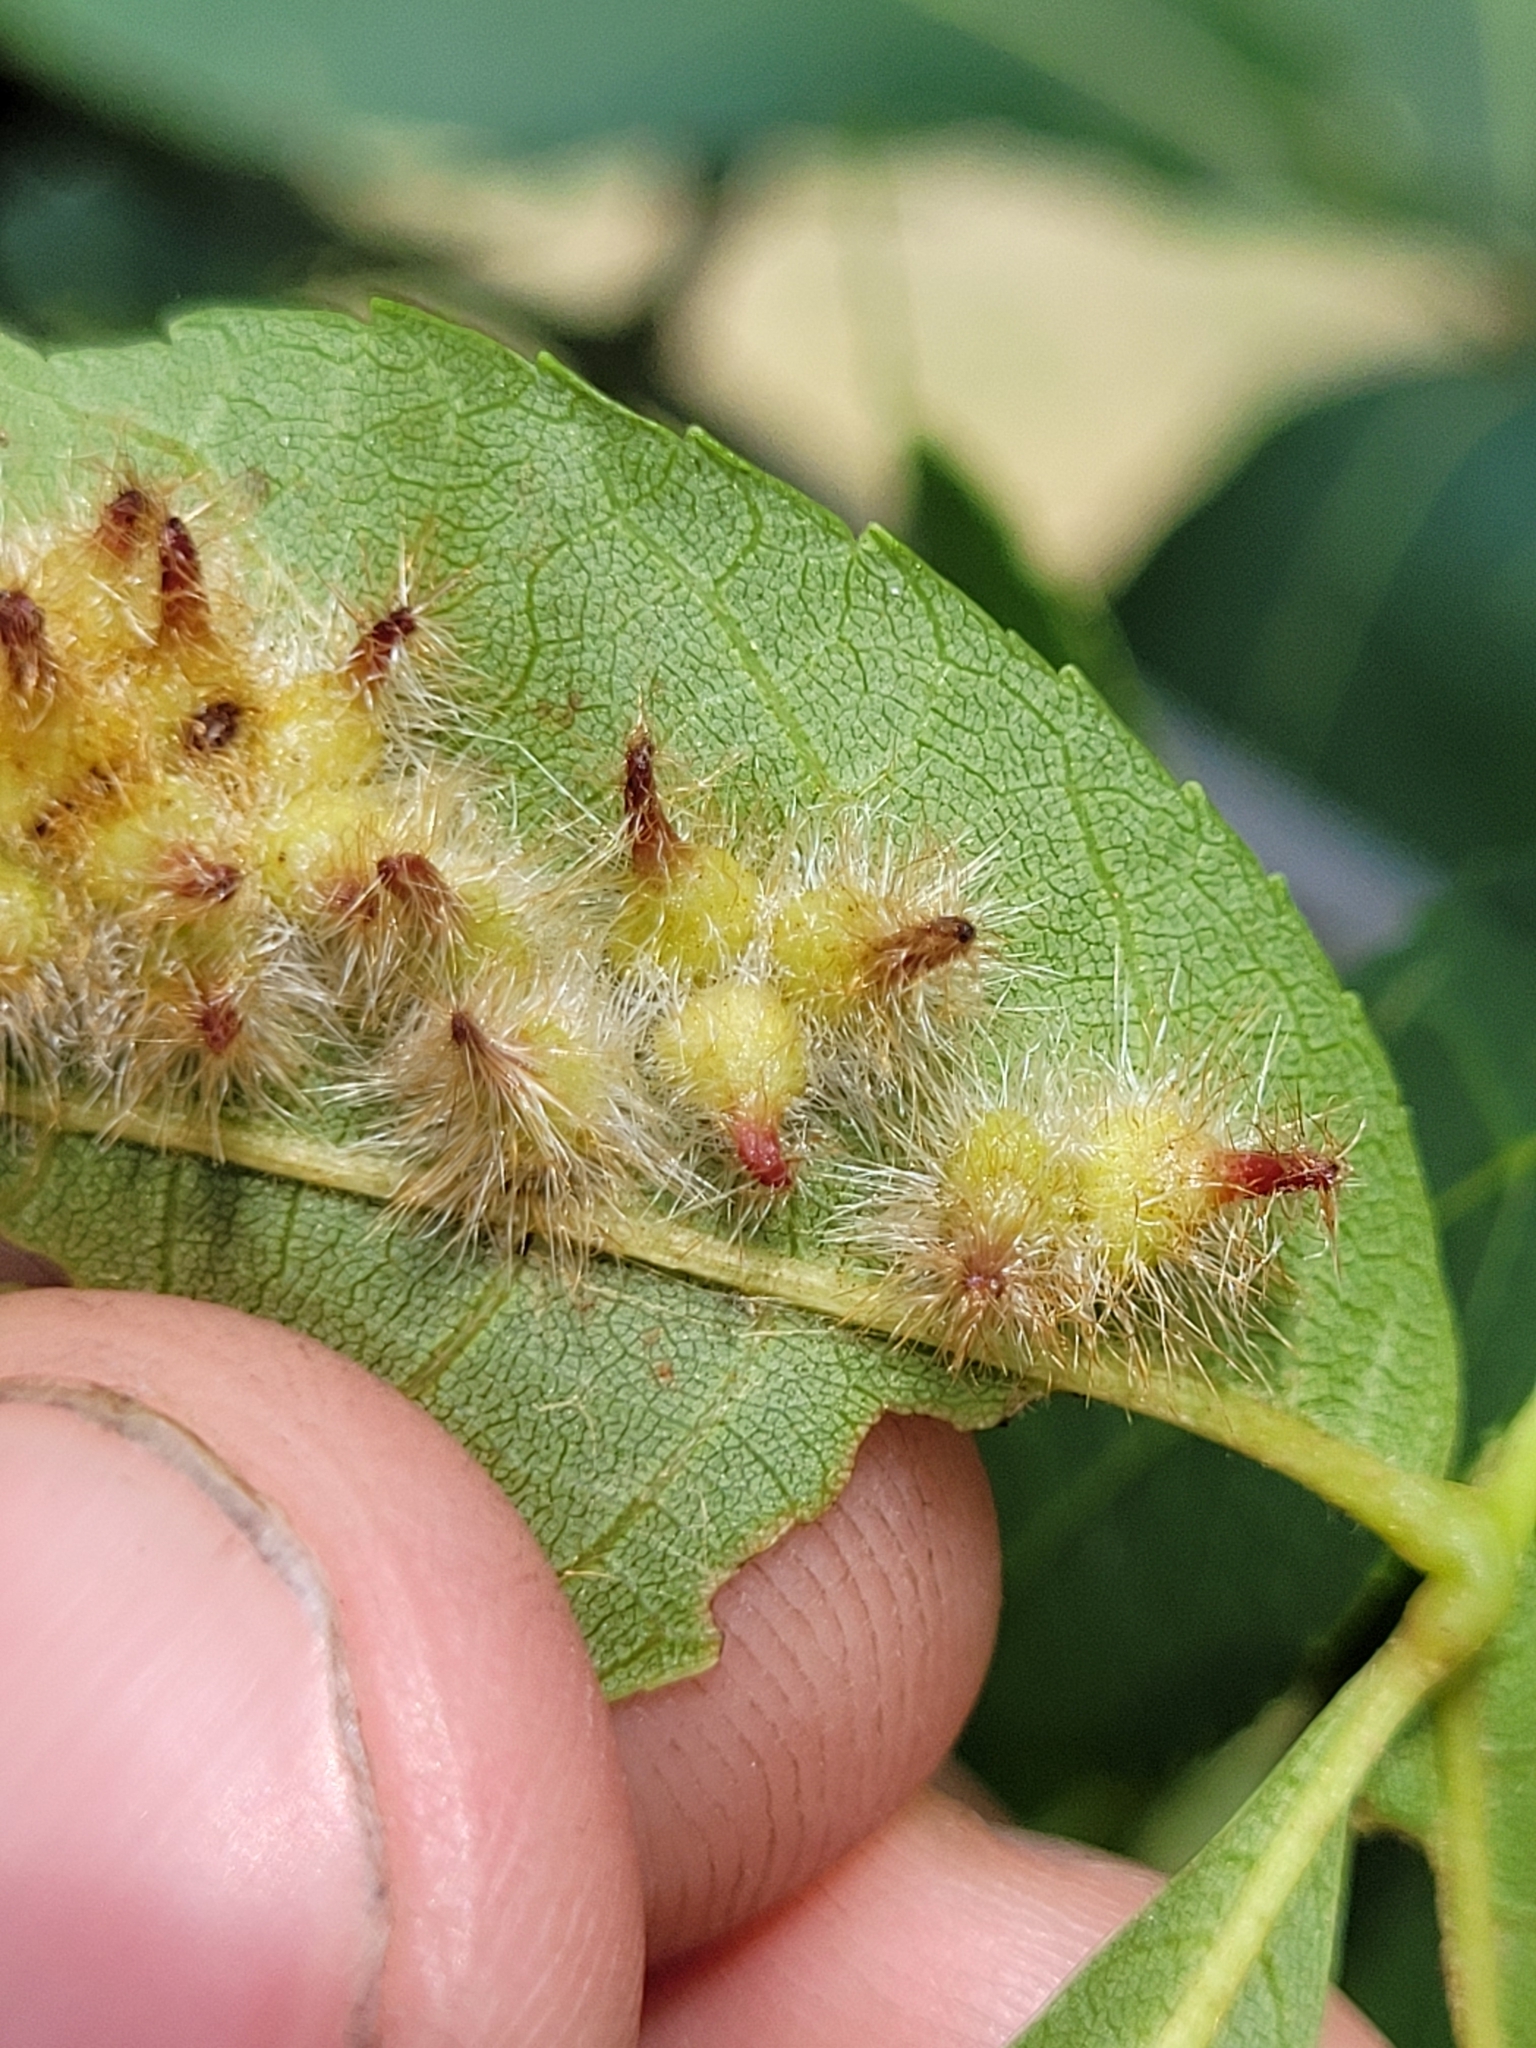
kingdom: Animalia
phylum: Arthropoda
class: Insecta
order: Diptera
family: Cecidomyiidae
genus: Caryomyia
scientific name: Caryomyia echinata
